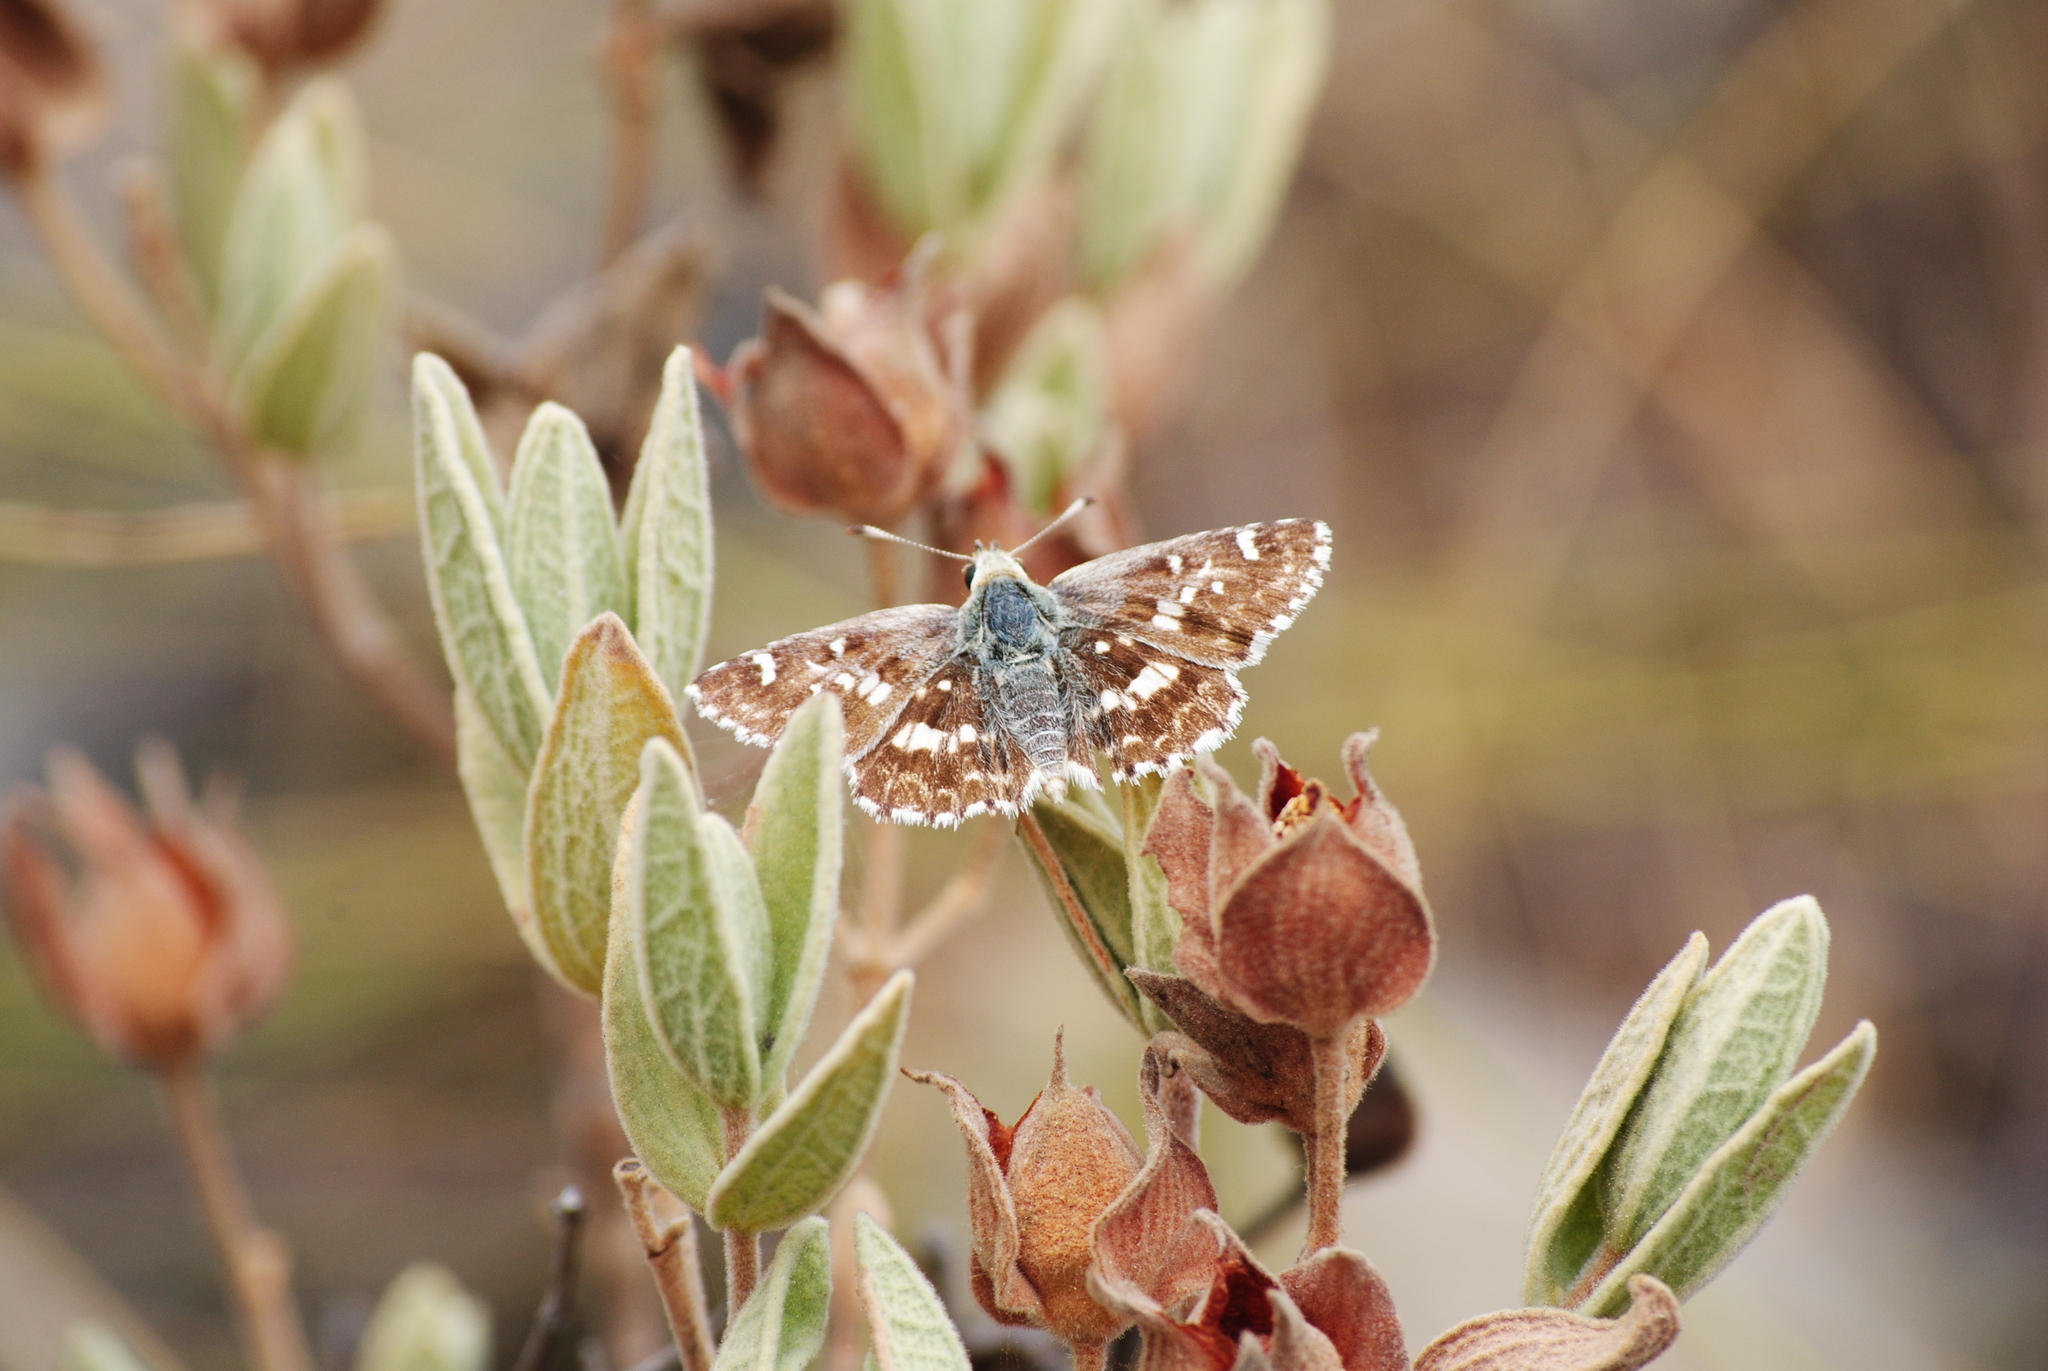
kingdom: Animalia
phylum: Arthropoda
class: Insecta
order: Lepidoptera
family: Hesperiidae
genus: Syrichtus
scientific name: Syrichtus Muschampia proto
